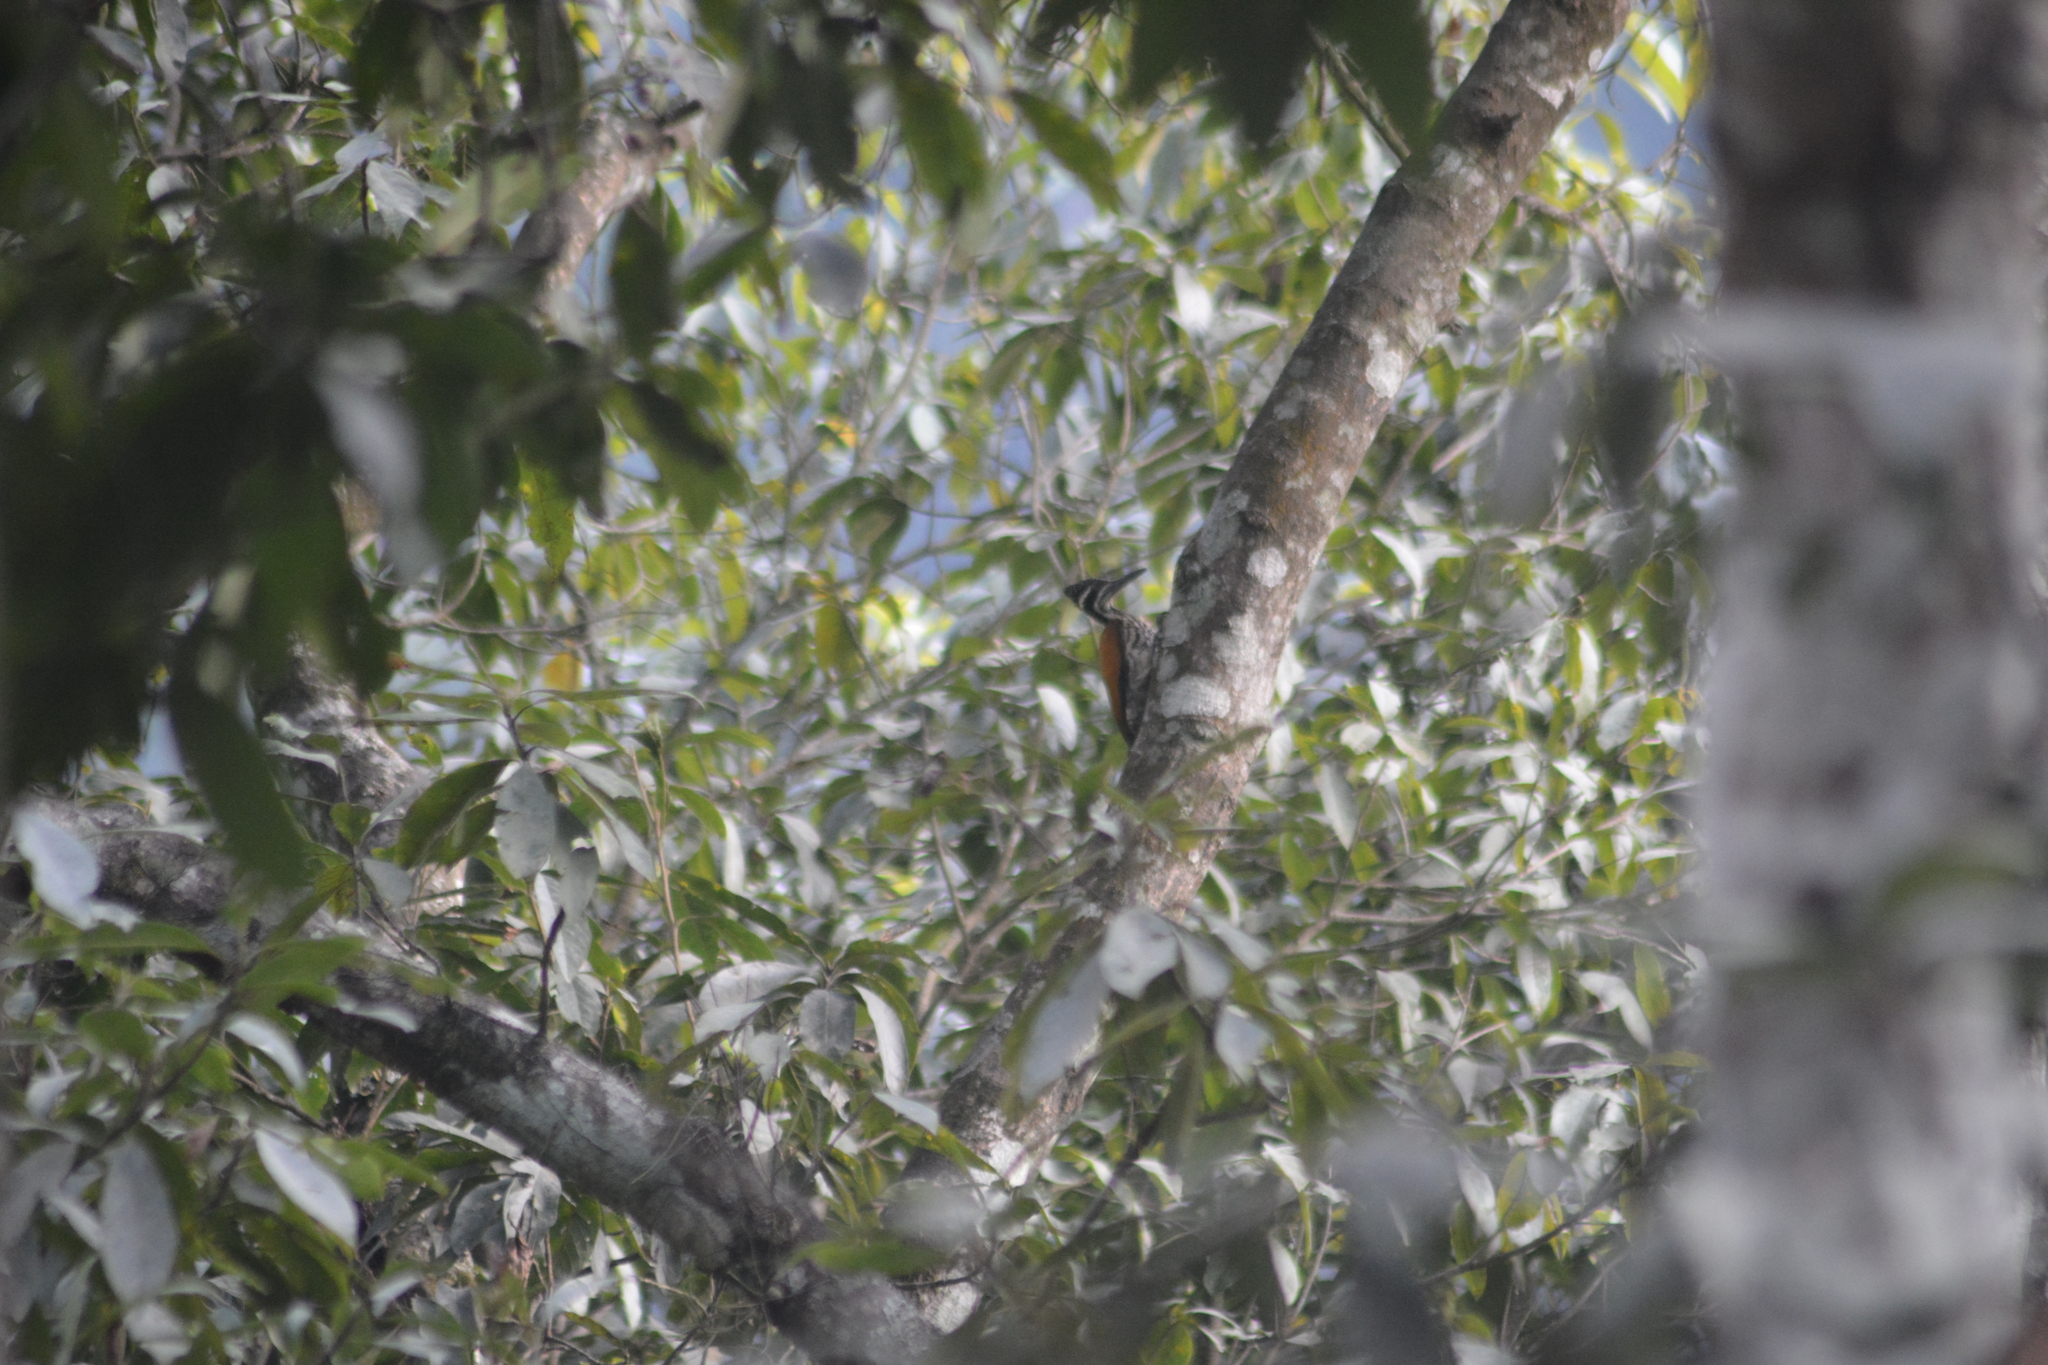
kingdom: Animalia
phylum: Chordata
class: Aves
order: Piciformes
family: Picidae
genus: Chrysocolaptes
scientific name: Chrysocolaptes guttacristatus
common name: Greater flameback
